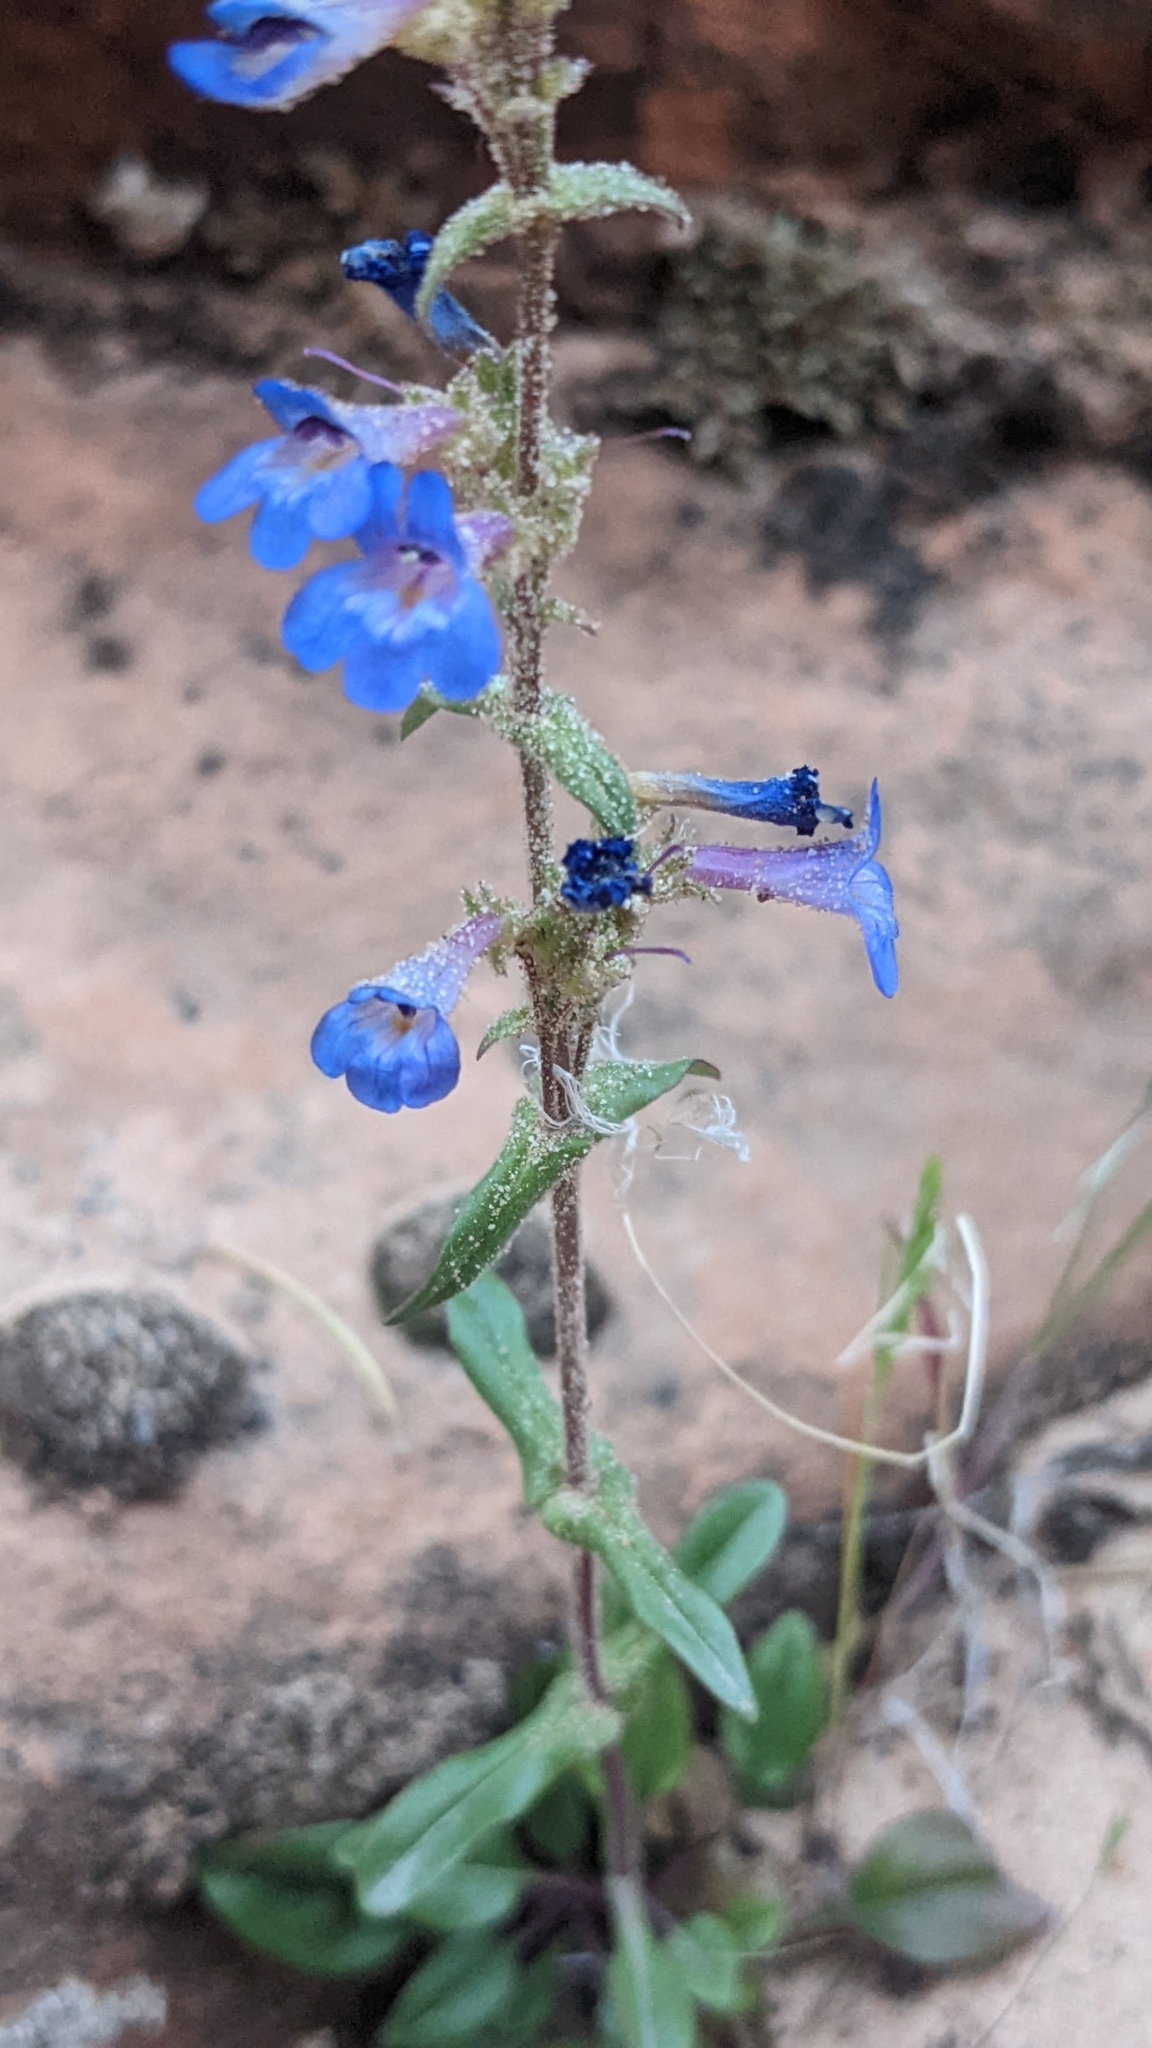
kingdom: Plantae
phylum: Tracheophyta
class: Magnoliopsida
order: Lamiales
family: Plantaginaceae
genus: Penstemon
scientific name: Penstemon humilis
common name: Low penstemon
